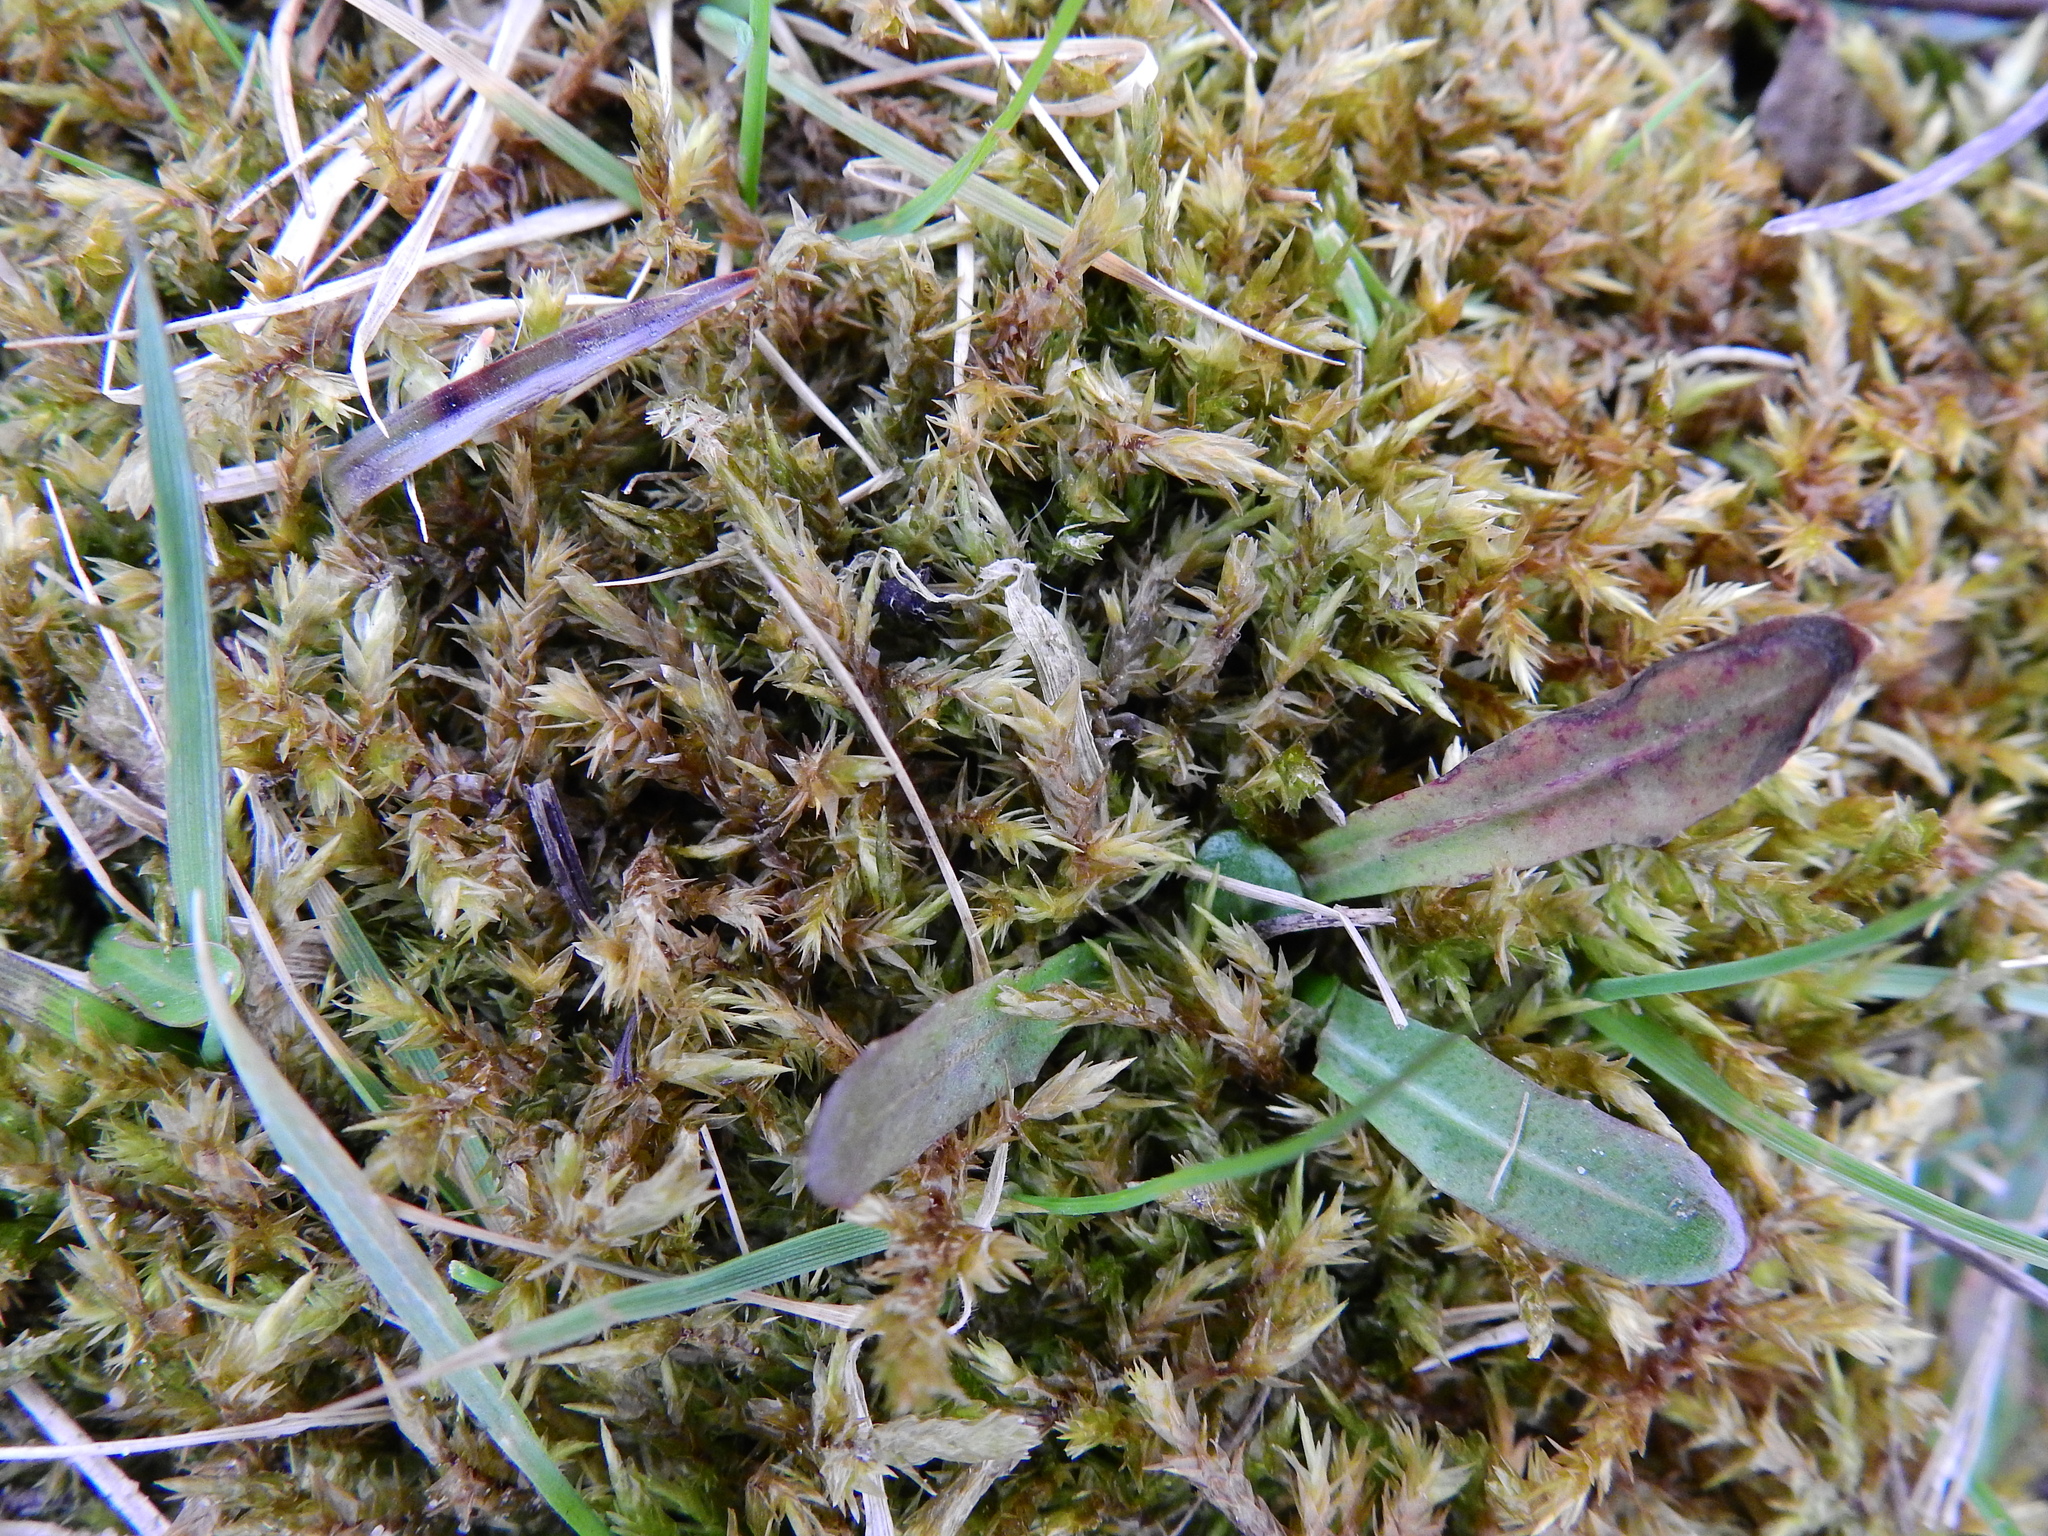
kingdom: Plantae
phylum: Bryophyta
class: Bryopsida
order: Hypnales
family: Pylaisiaceae
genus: Calliergonella
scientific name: Calliergonella cuspidata
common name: Common large wetland moss
